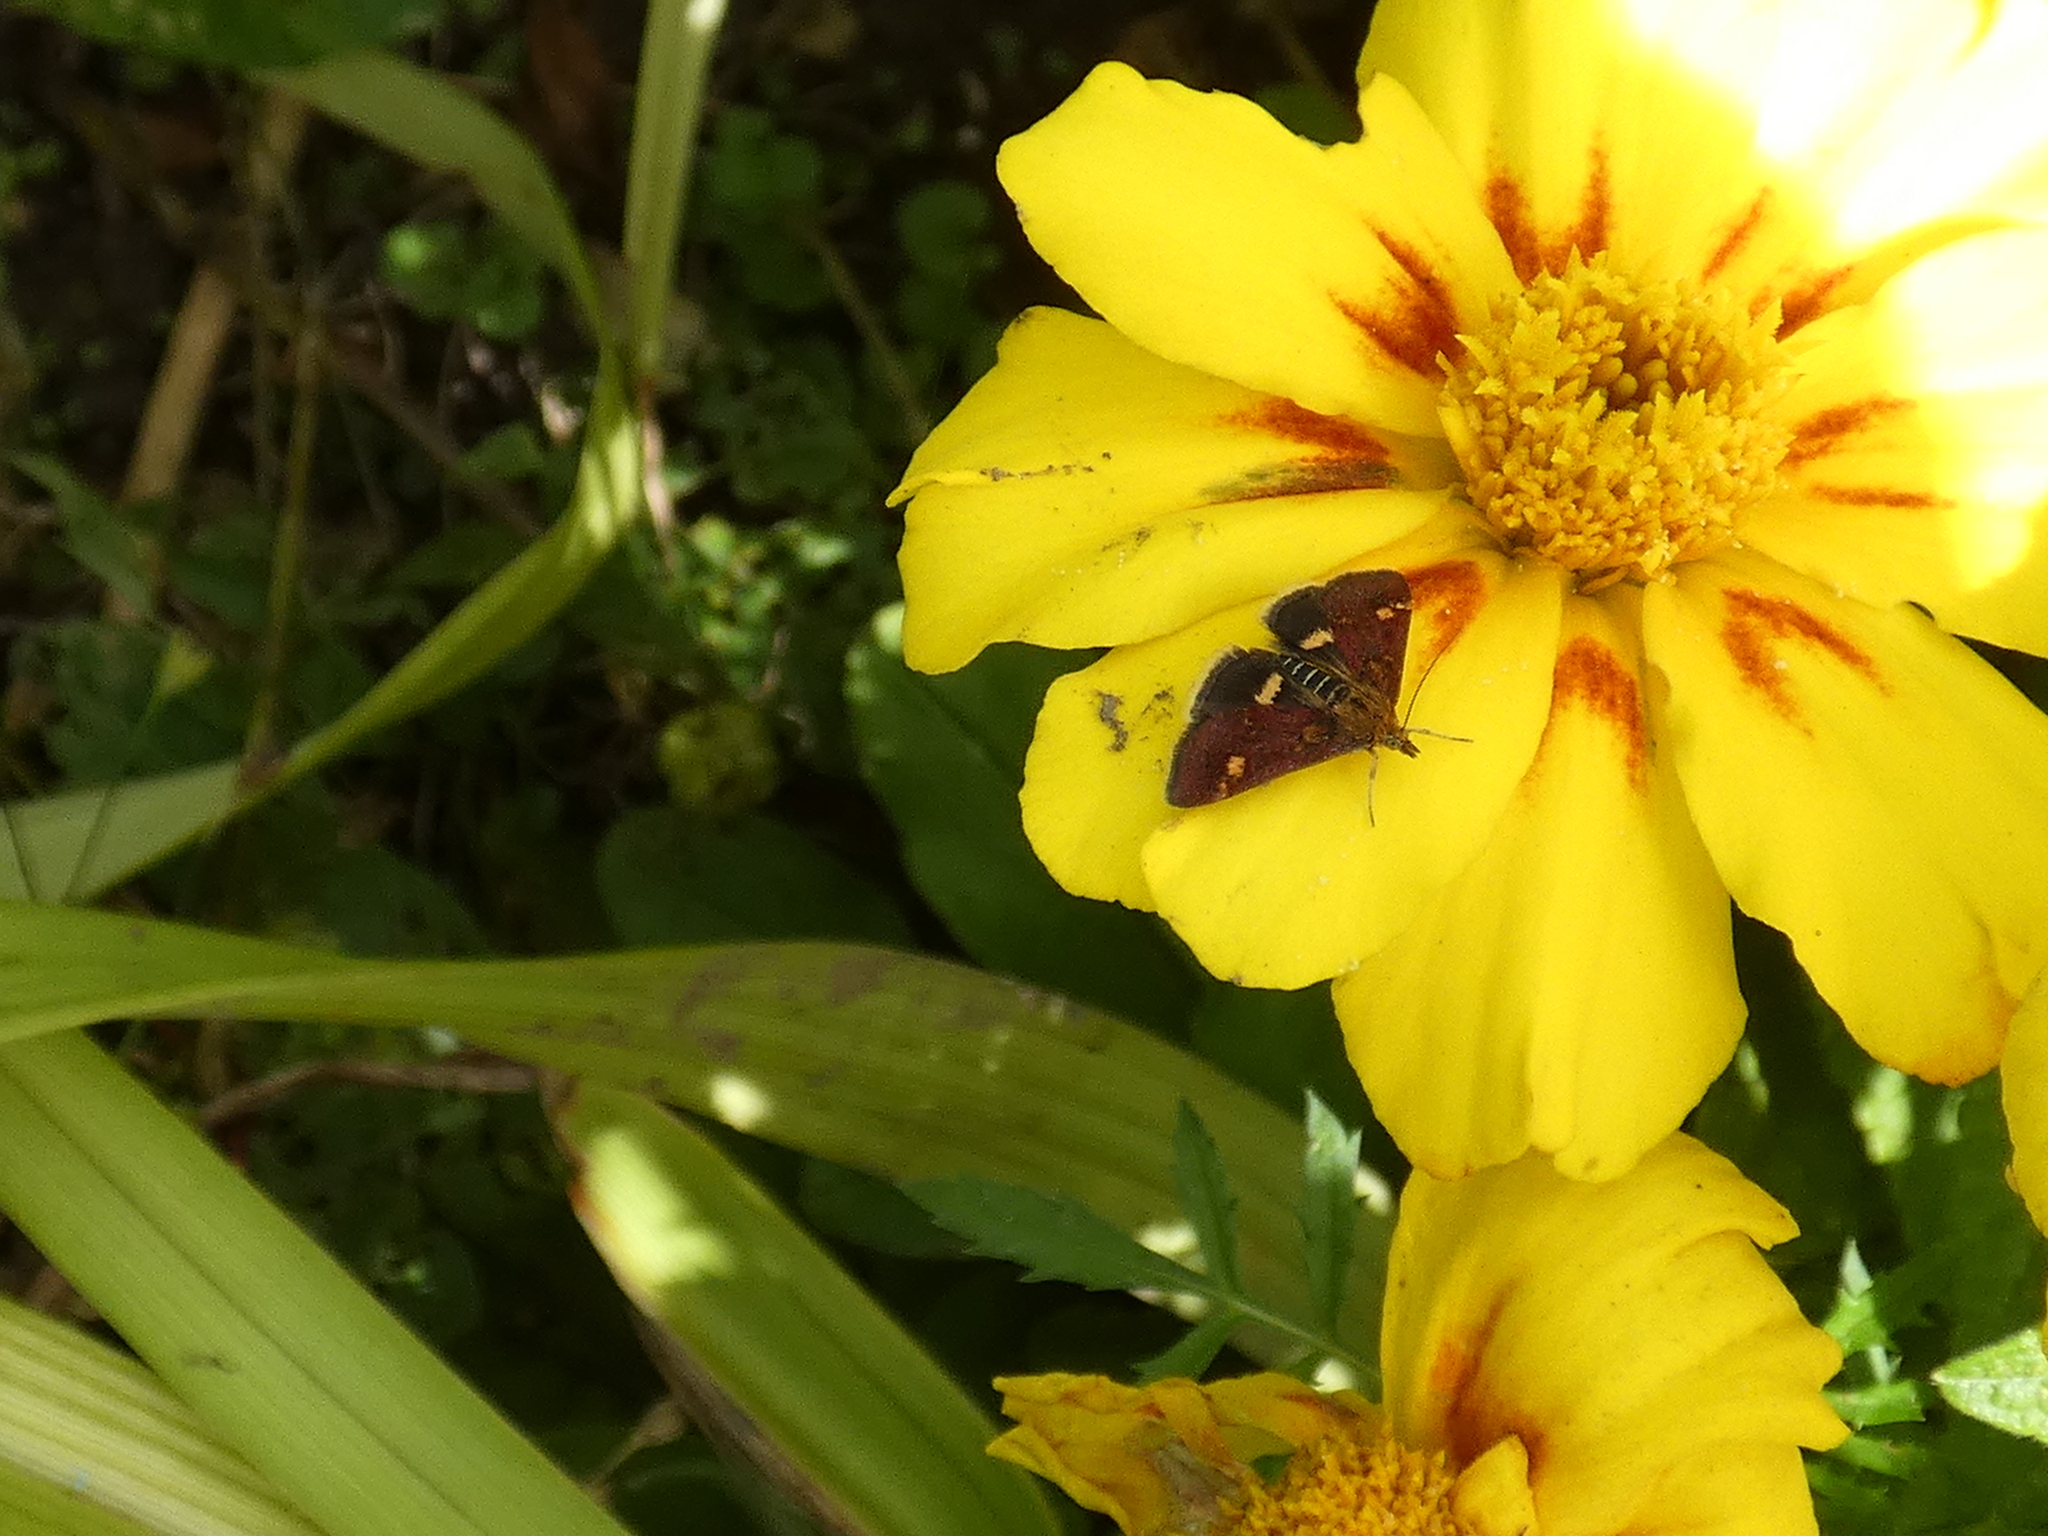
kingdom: Animalia
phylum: Arthropoda
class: Insecta
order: Lepidoptera
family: Crambidae
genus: Pyrausta
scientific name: Pyrausta aurata
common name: Small purple & gold
